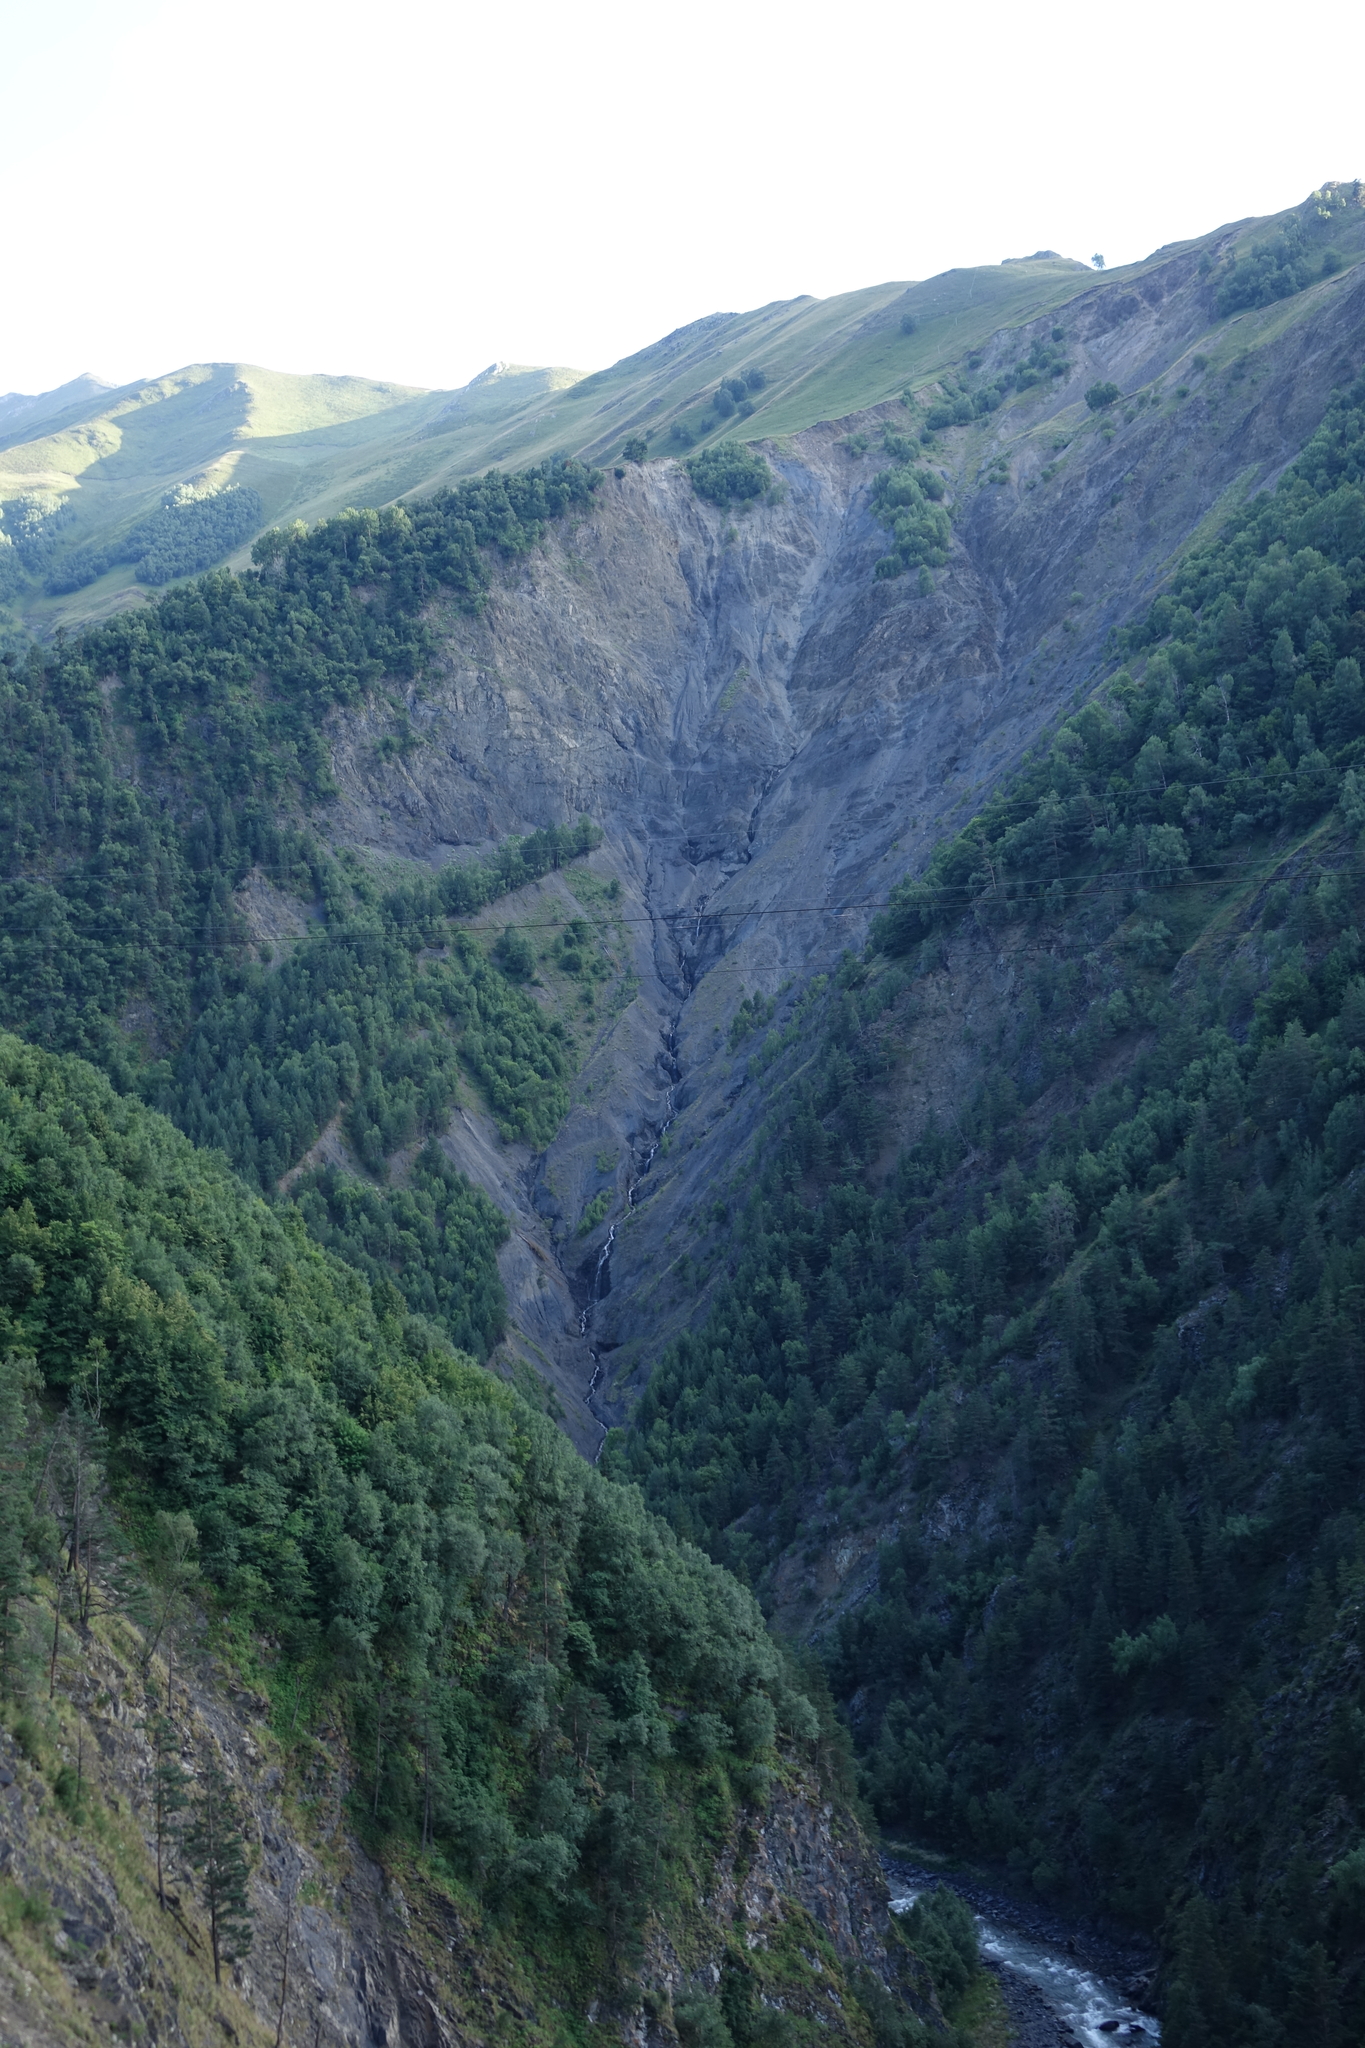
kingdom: Plantae
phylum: Tracheophyta
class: Pinopsida
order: Pinales
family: Pinaceae
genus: Pinus
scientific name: Pinus sylvestris
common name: Scots pine
